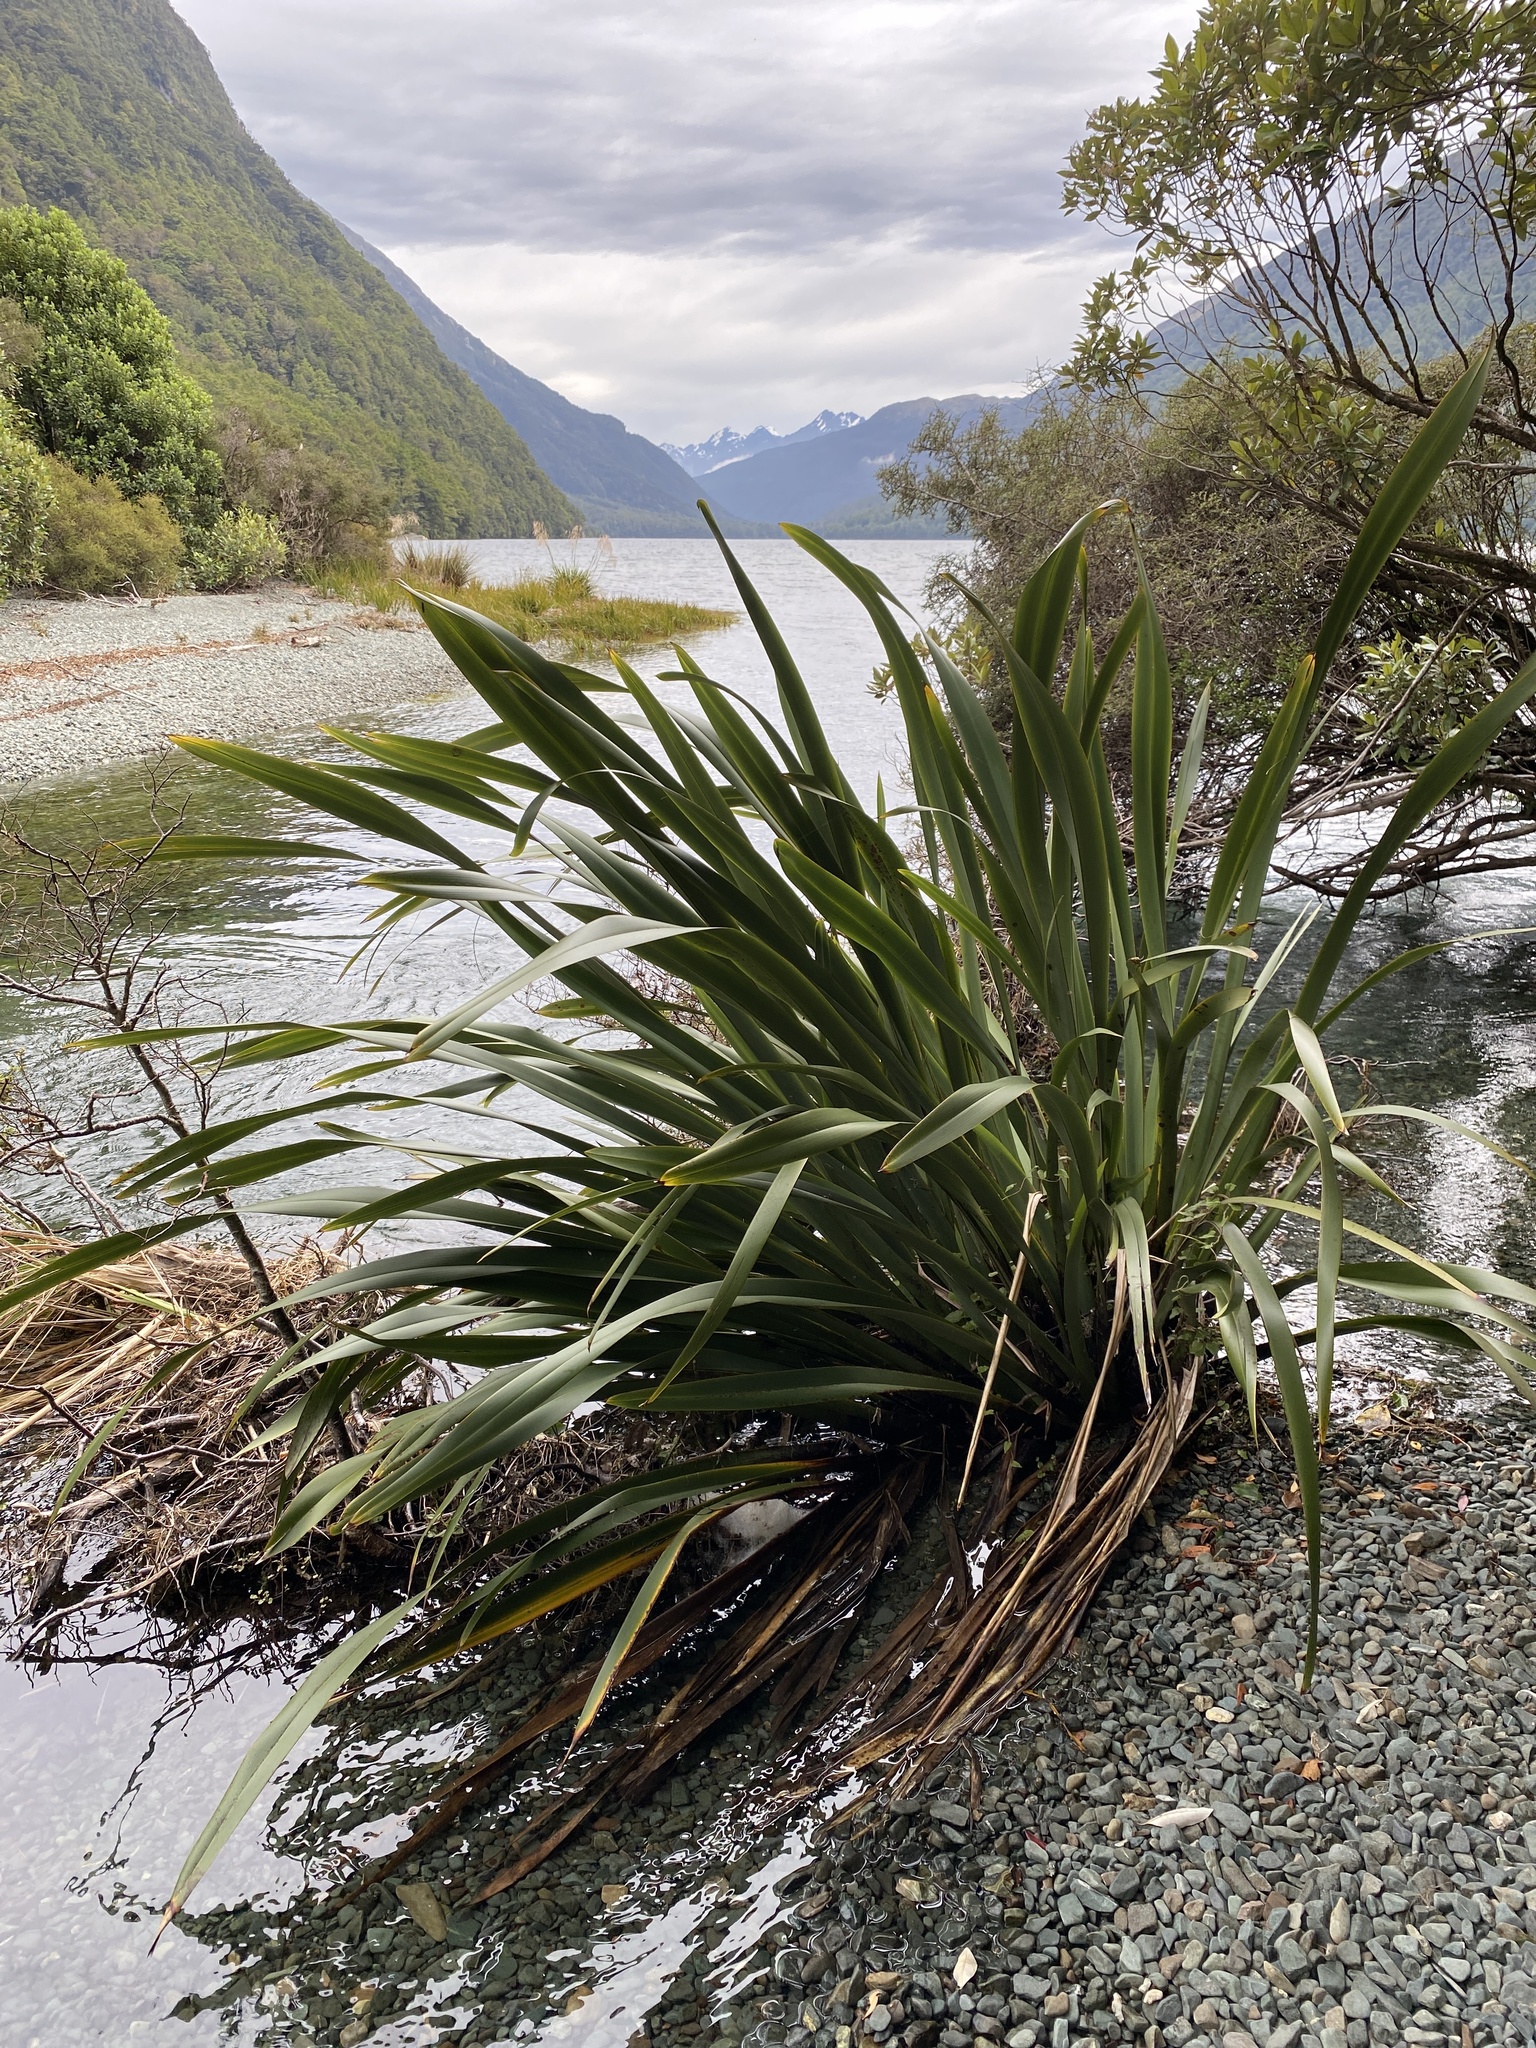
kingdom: Plantae
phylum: Tracheophyta
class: Liliopsida
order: Asparagales
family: Asphodelaceae
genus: Phormium
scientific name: Phormium tenax
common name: New zealand flax
